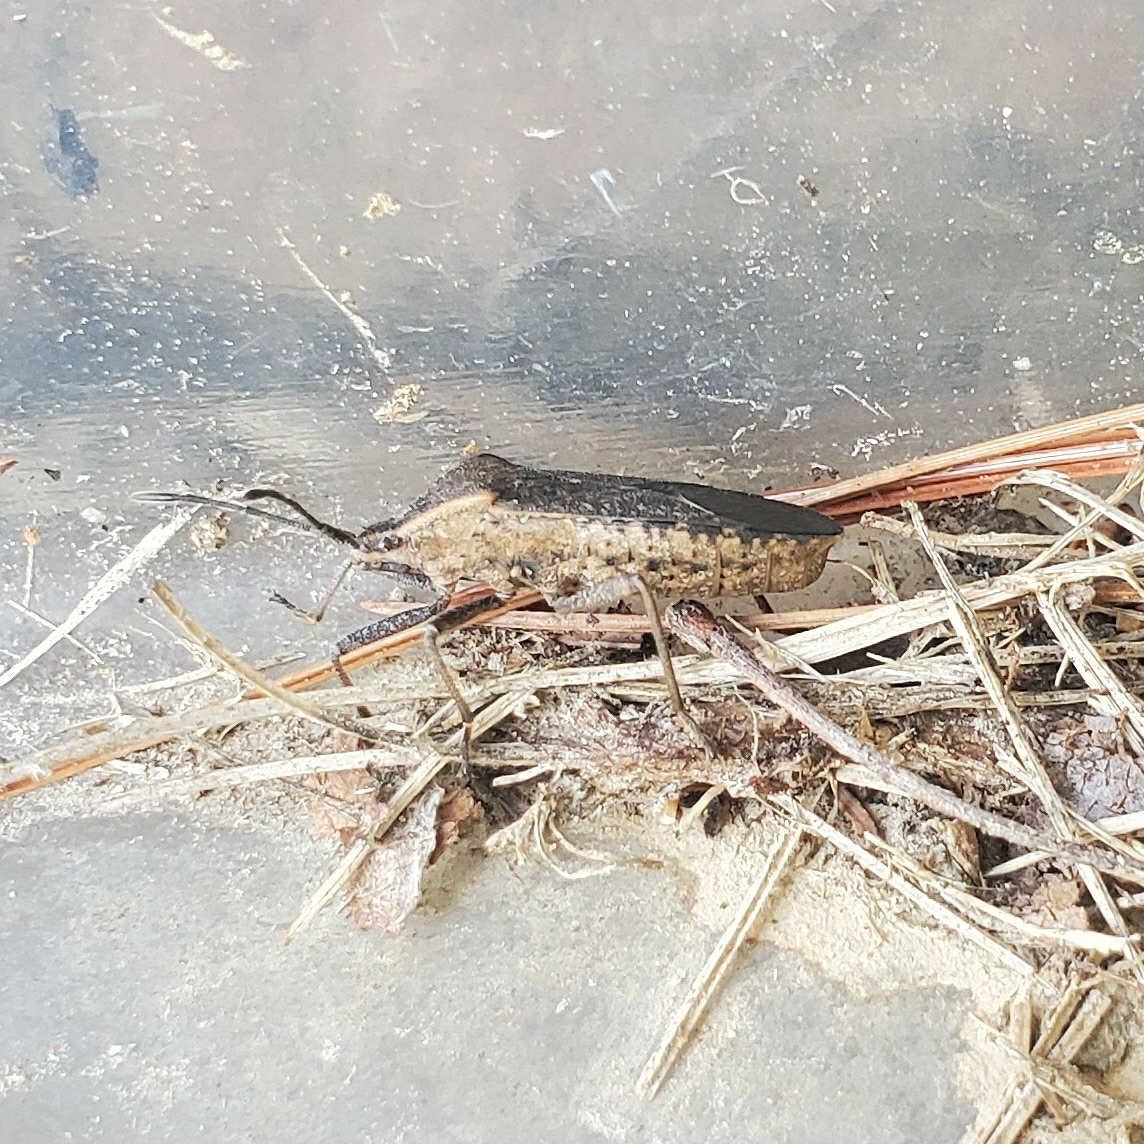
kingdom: Animalia
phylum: Arthropoda
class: Insecta
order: Hemiptera
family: Coreidae
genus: Anasa
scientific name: Anasa tristis
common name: Squash bug
